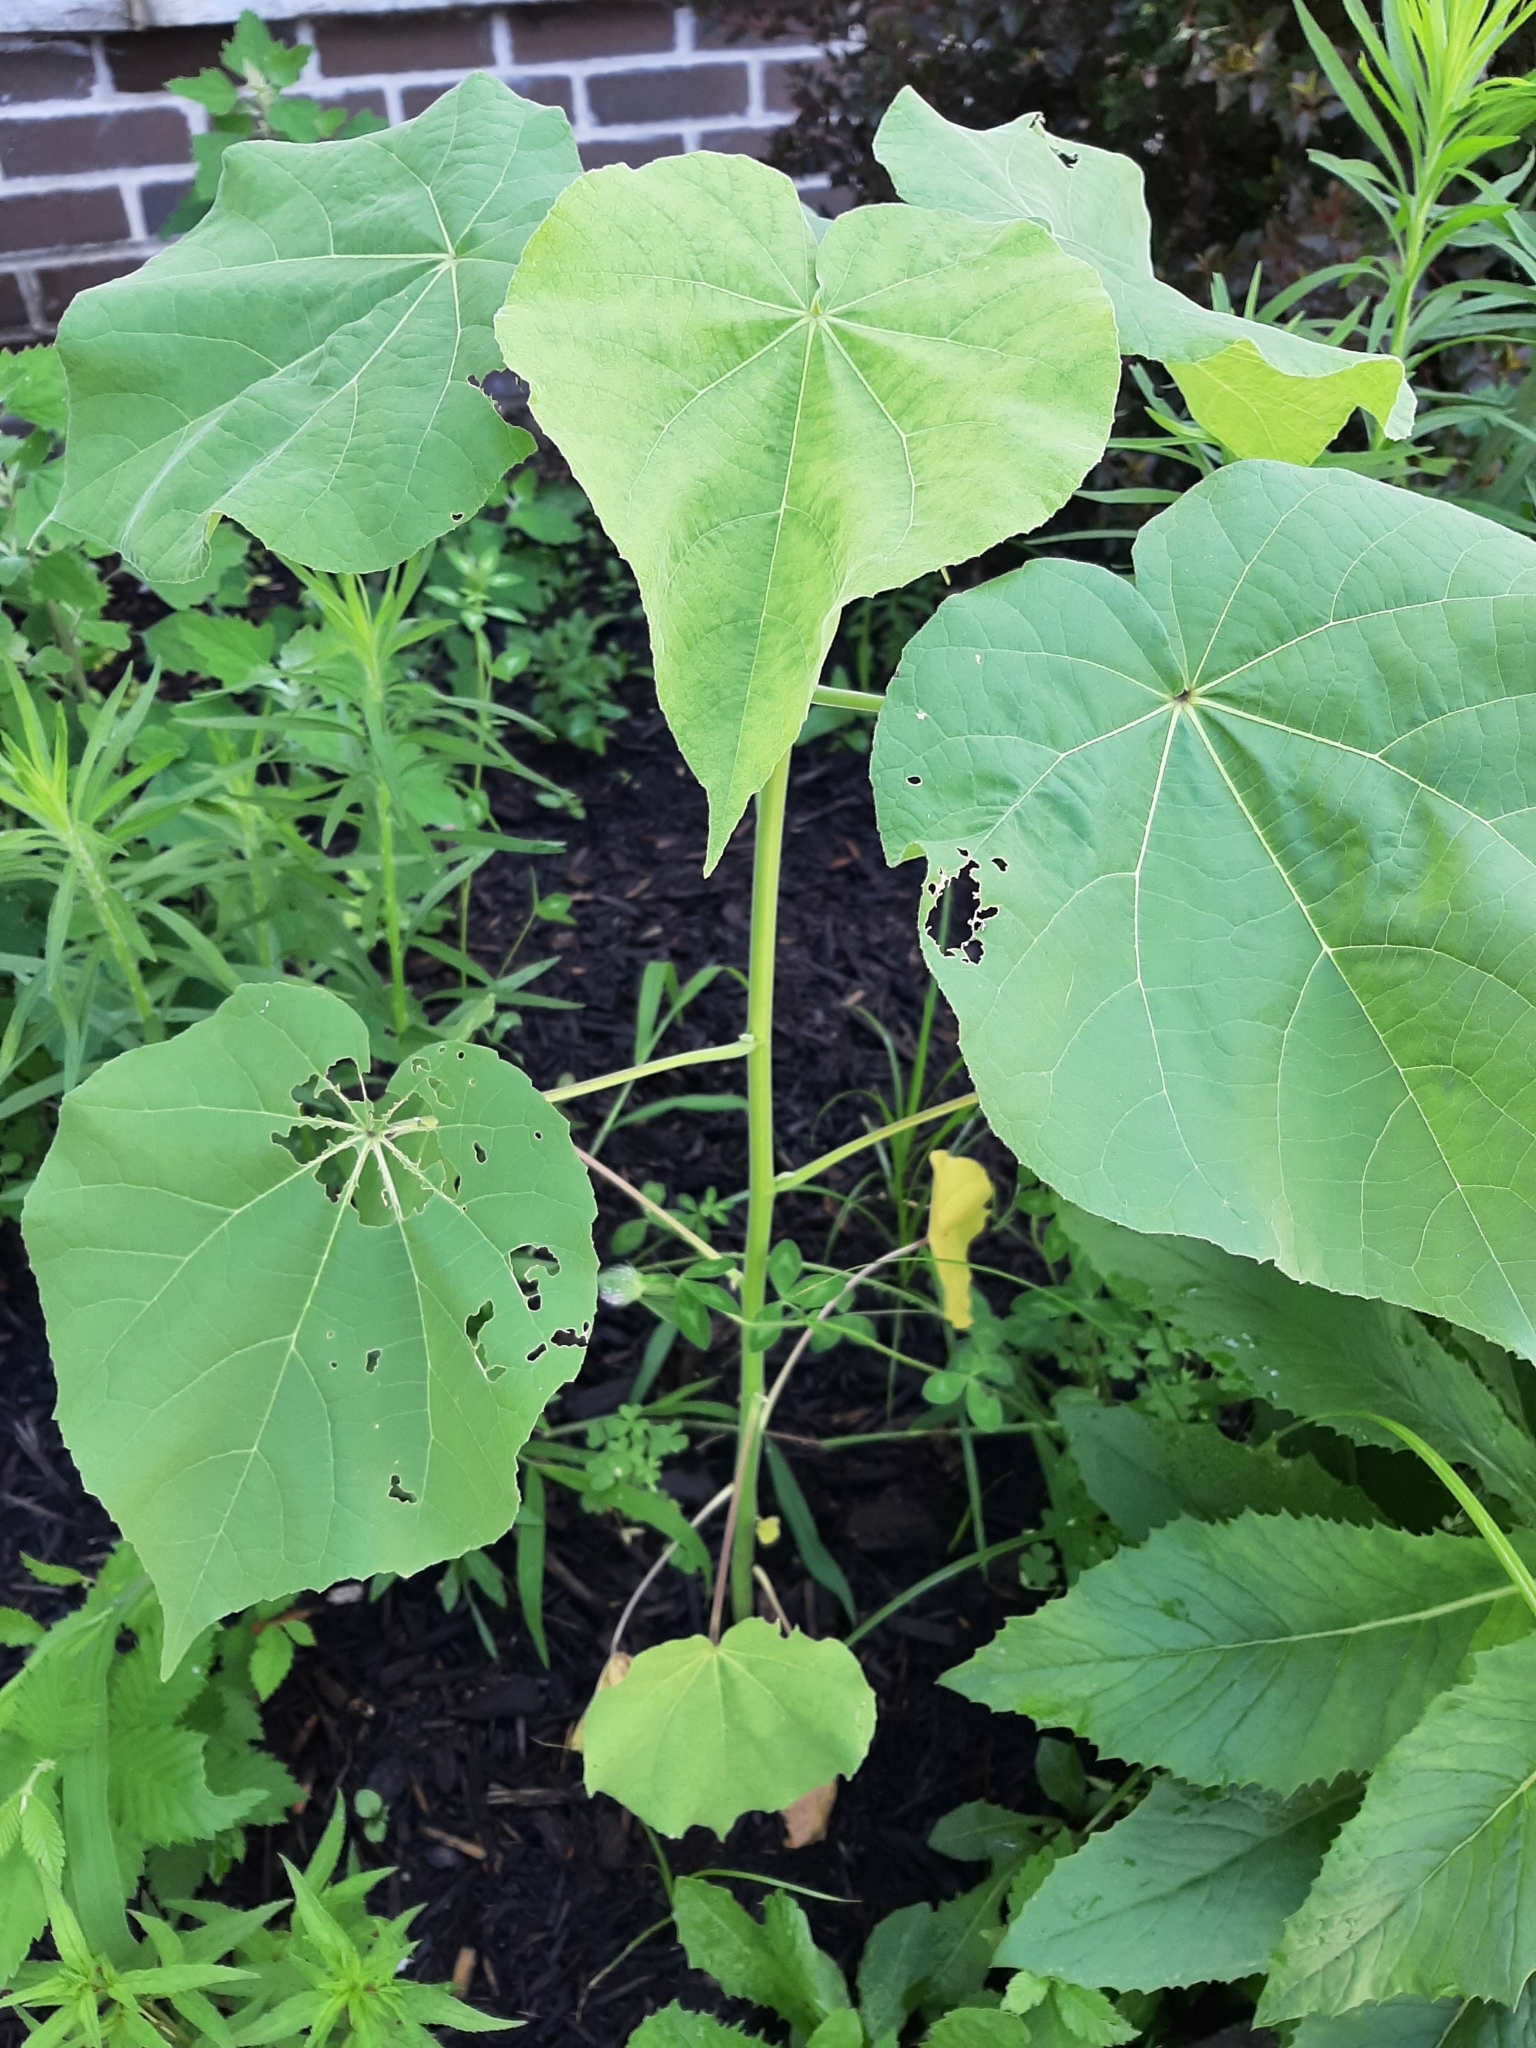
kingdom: Plantae
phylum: Tracheophyta
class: Magnoliopsida
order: Malvales
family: Malvaceae
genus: Abutilon
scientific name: Abutilon theophrasti
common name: Velvetleaf
